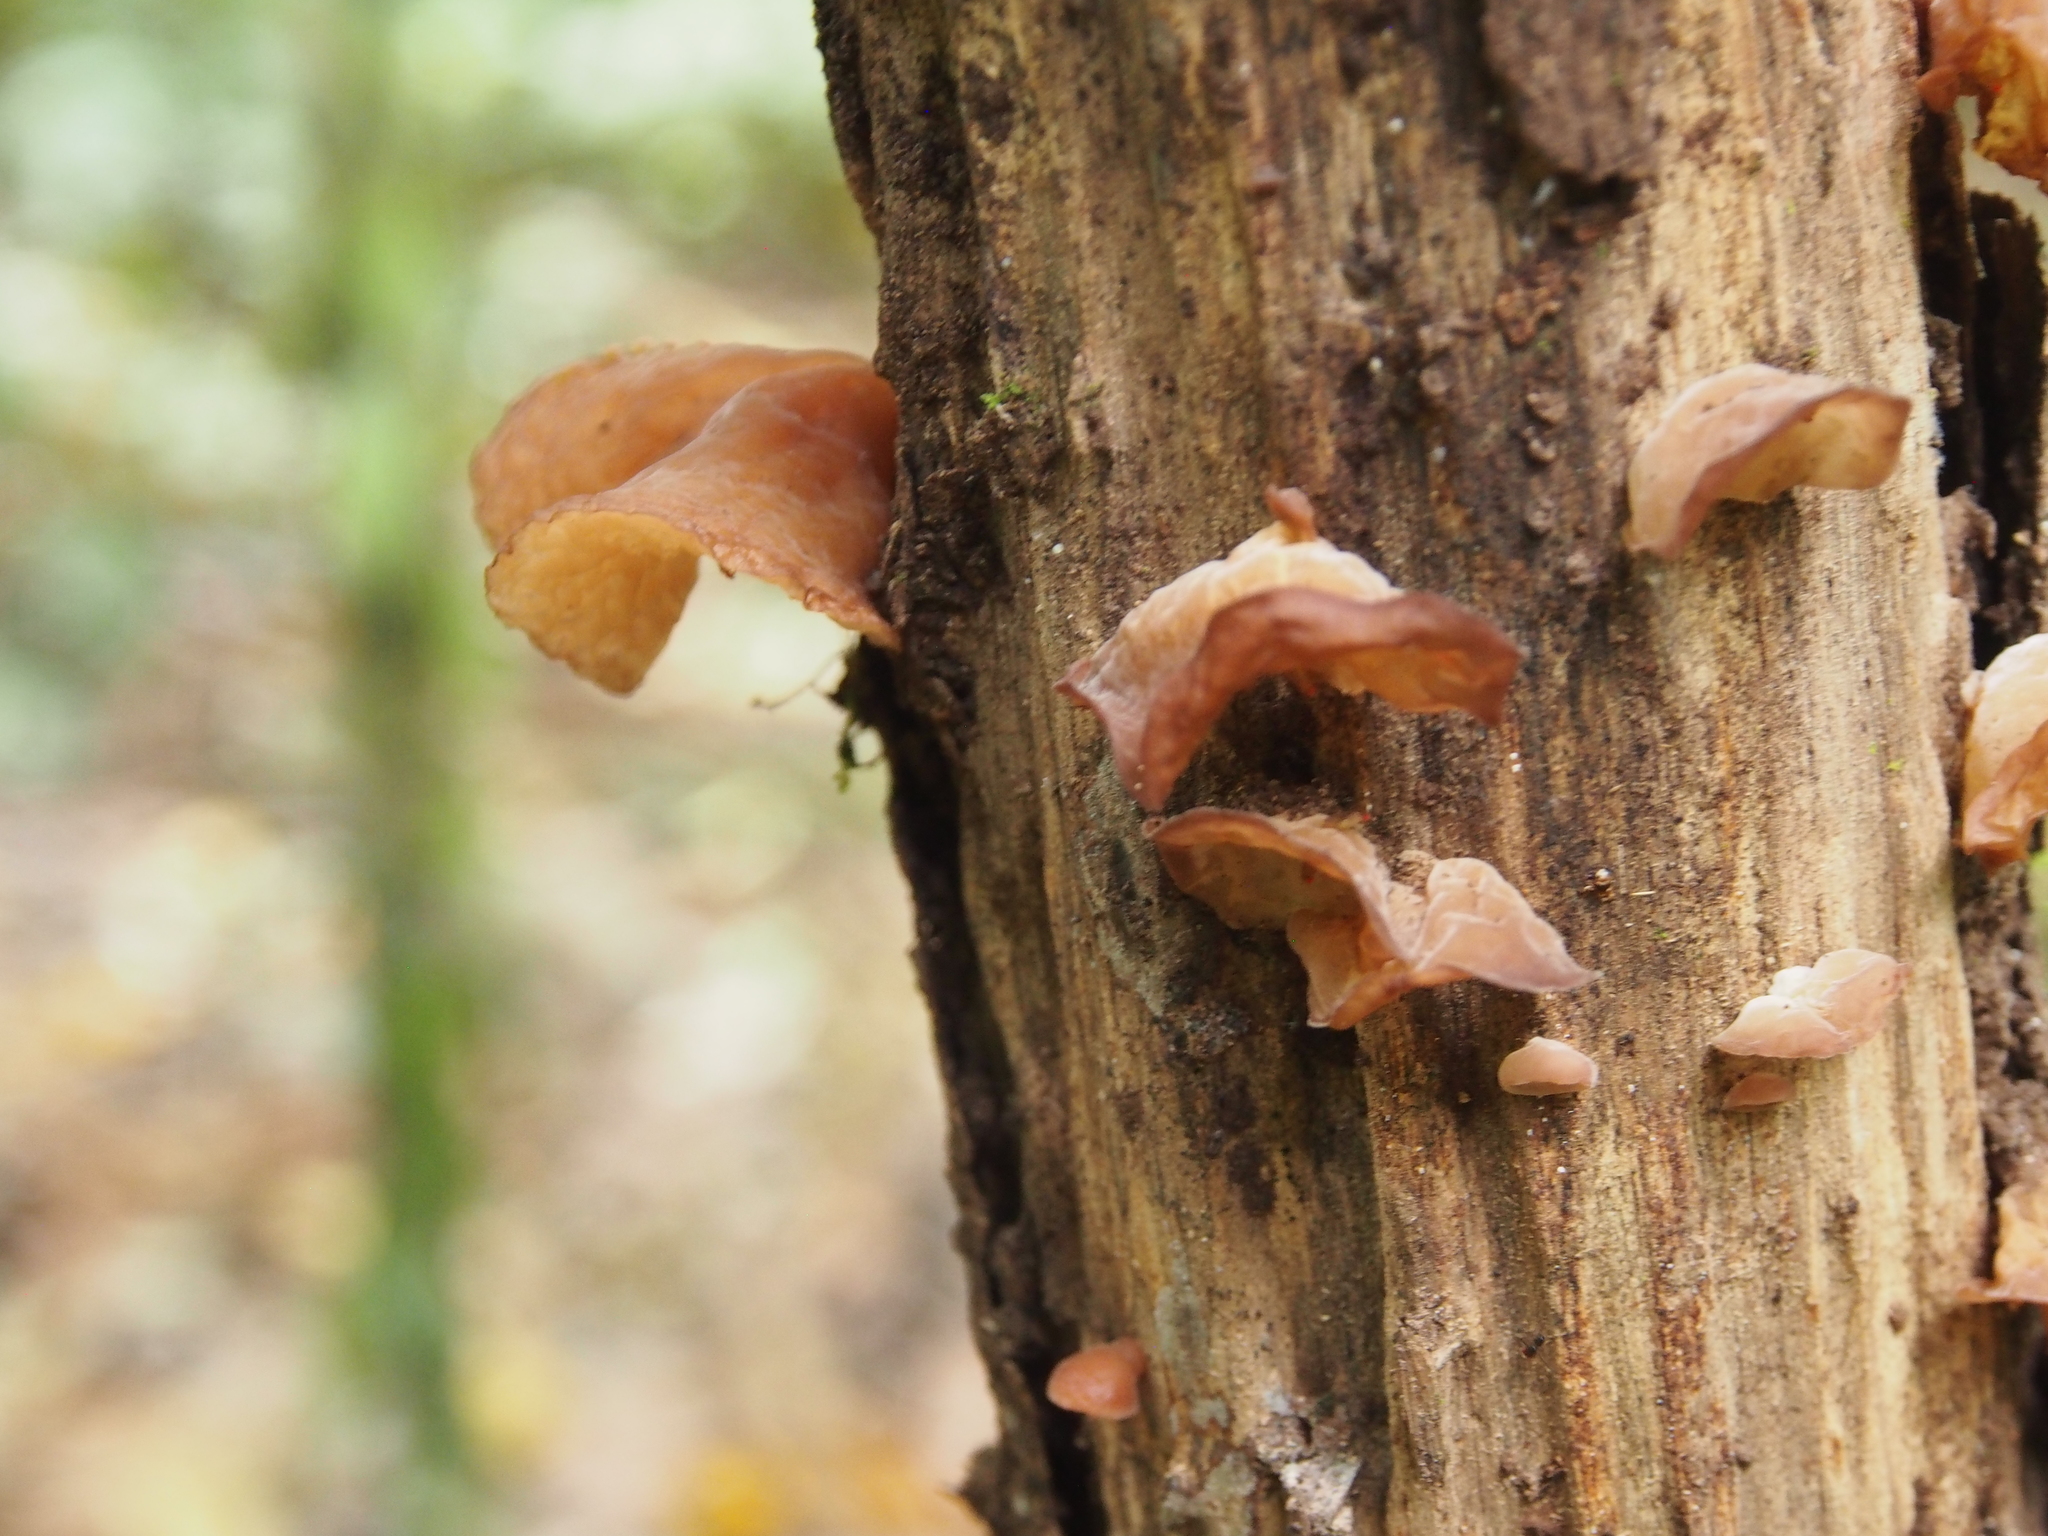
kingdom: Fungi
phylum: Basidiomycota
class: Agaricomycetes
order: Auriculariales
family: Auriculariaceae
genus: Auricularia
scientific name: Auricularia delicata
